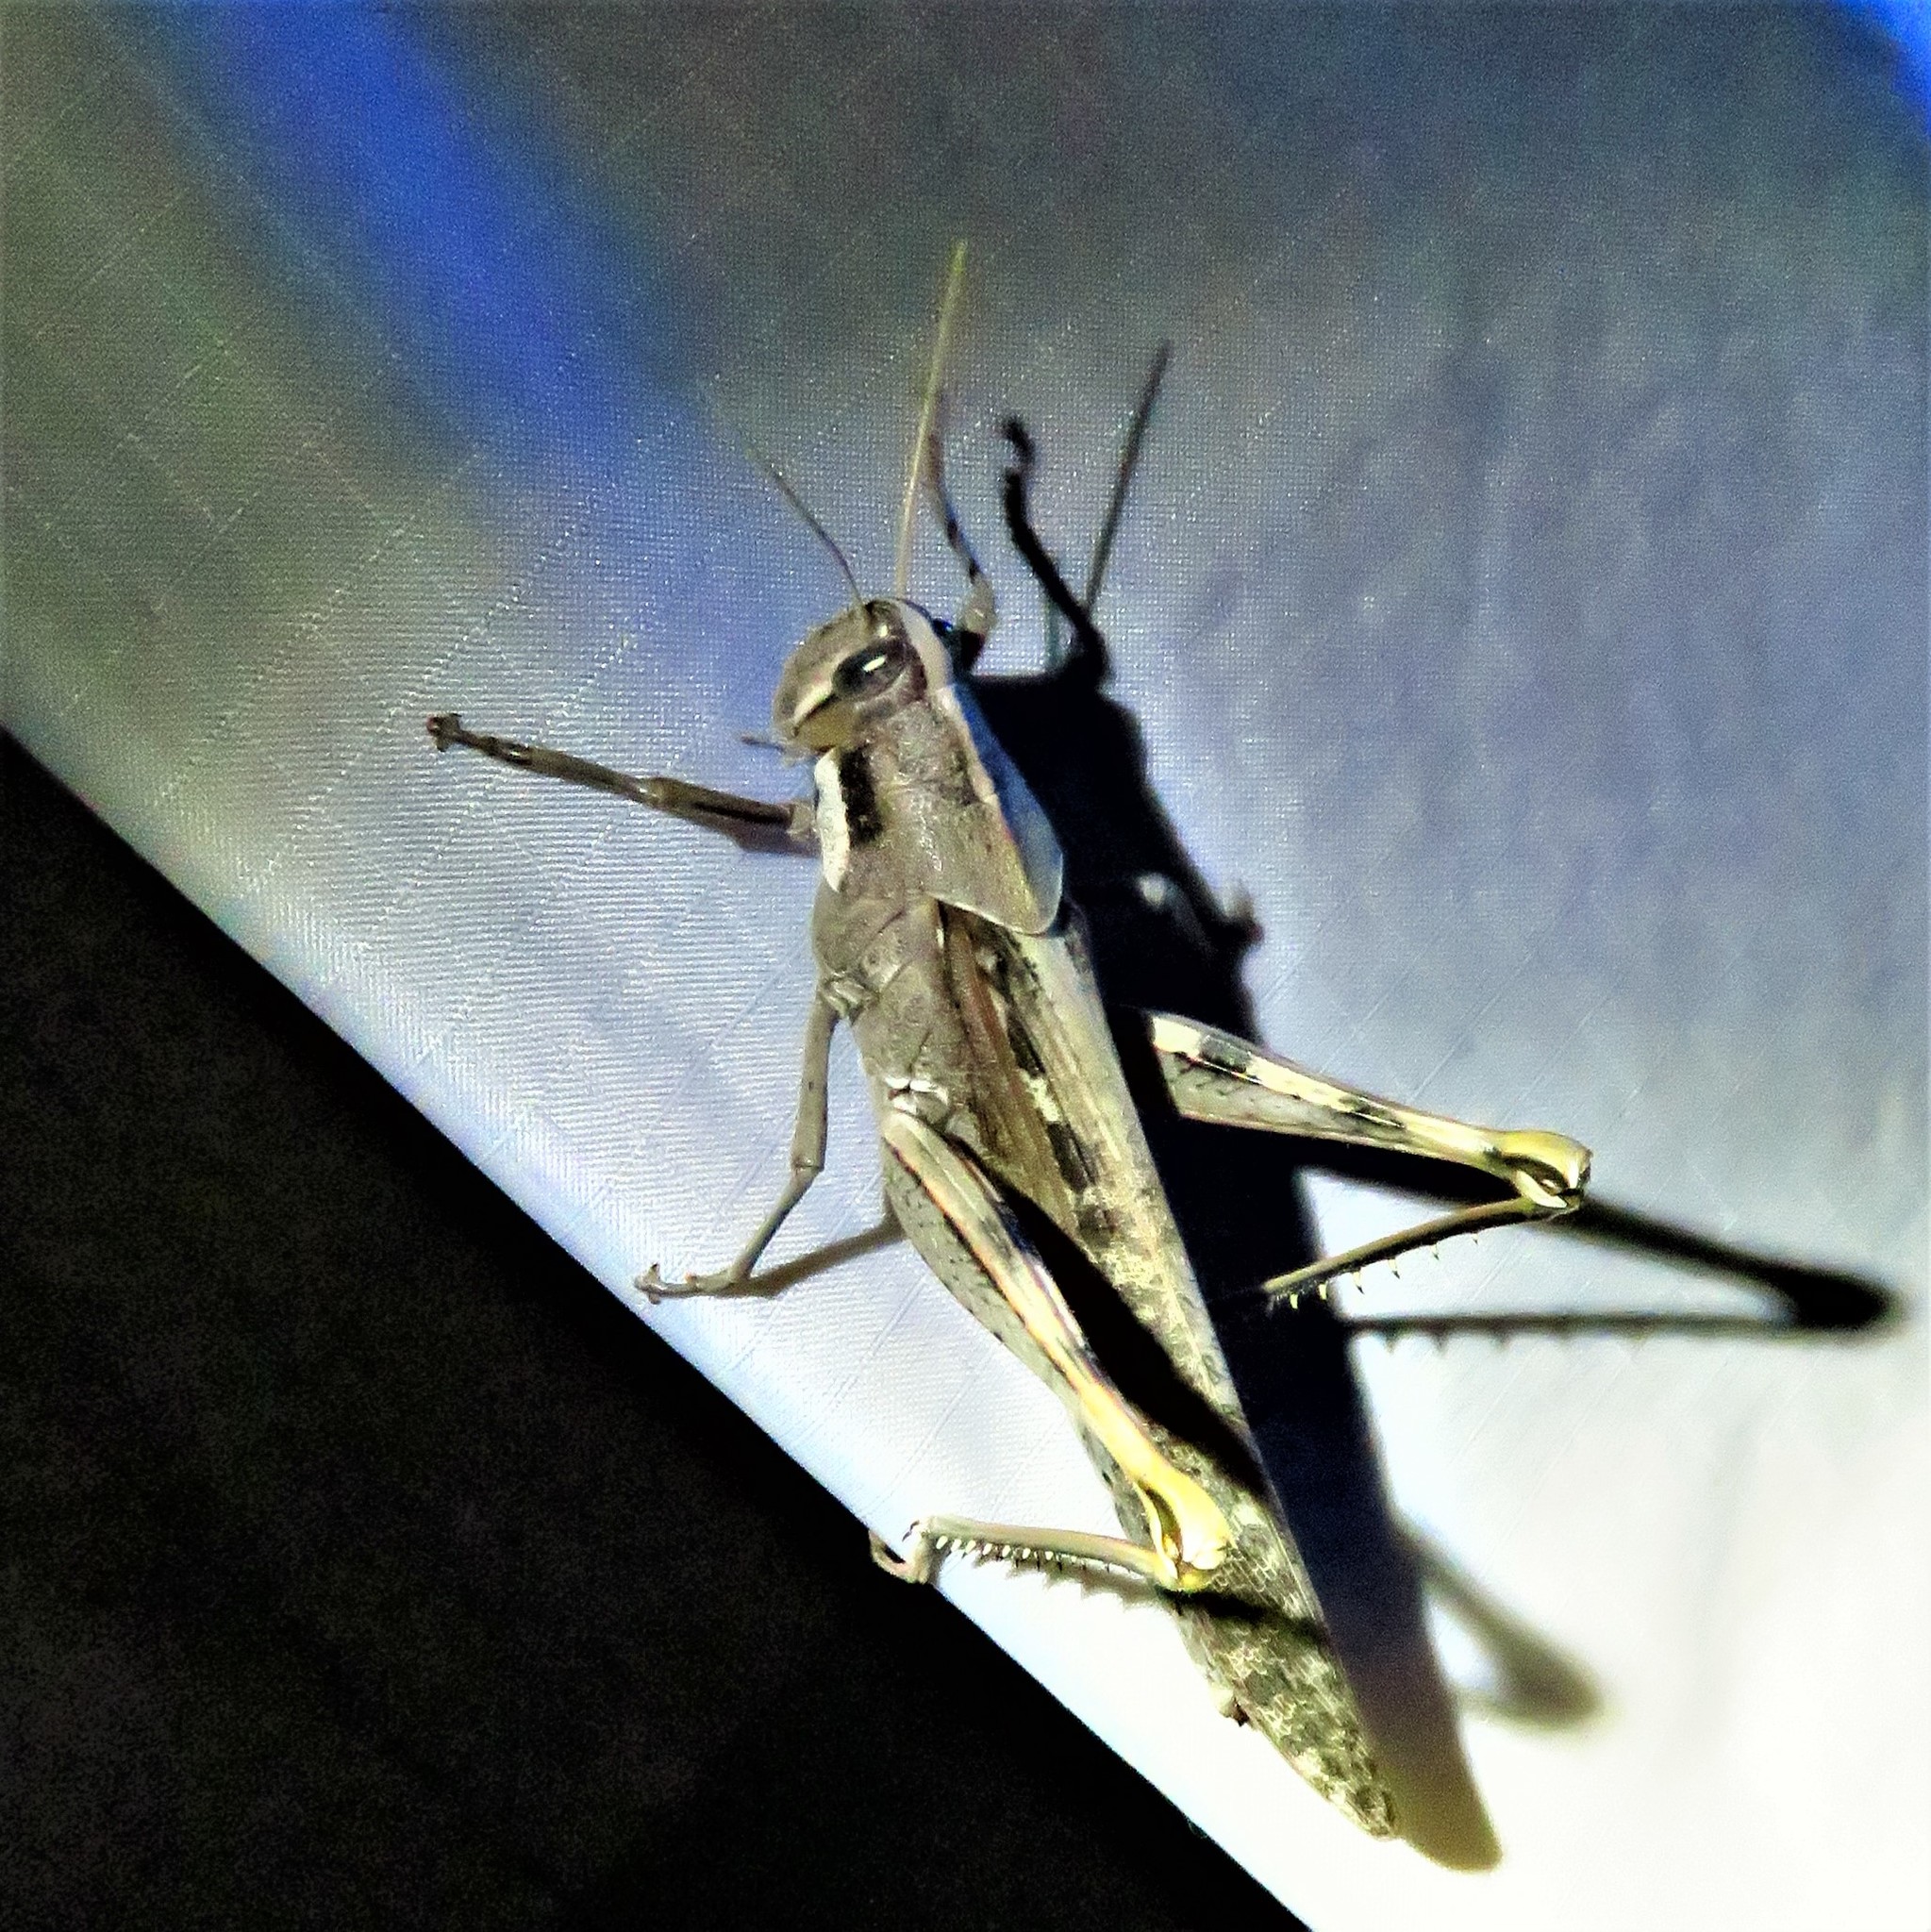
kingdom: Animalia
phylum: Arthropoda
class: Insecta
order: Orthoptera
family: Acrididae
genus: Schistocerca
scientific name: Schistocerca nitens
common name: Vagrant grasshopper
